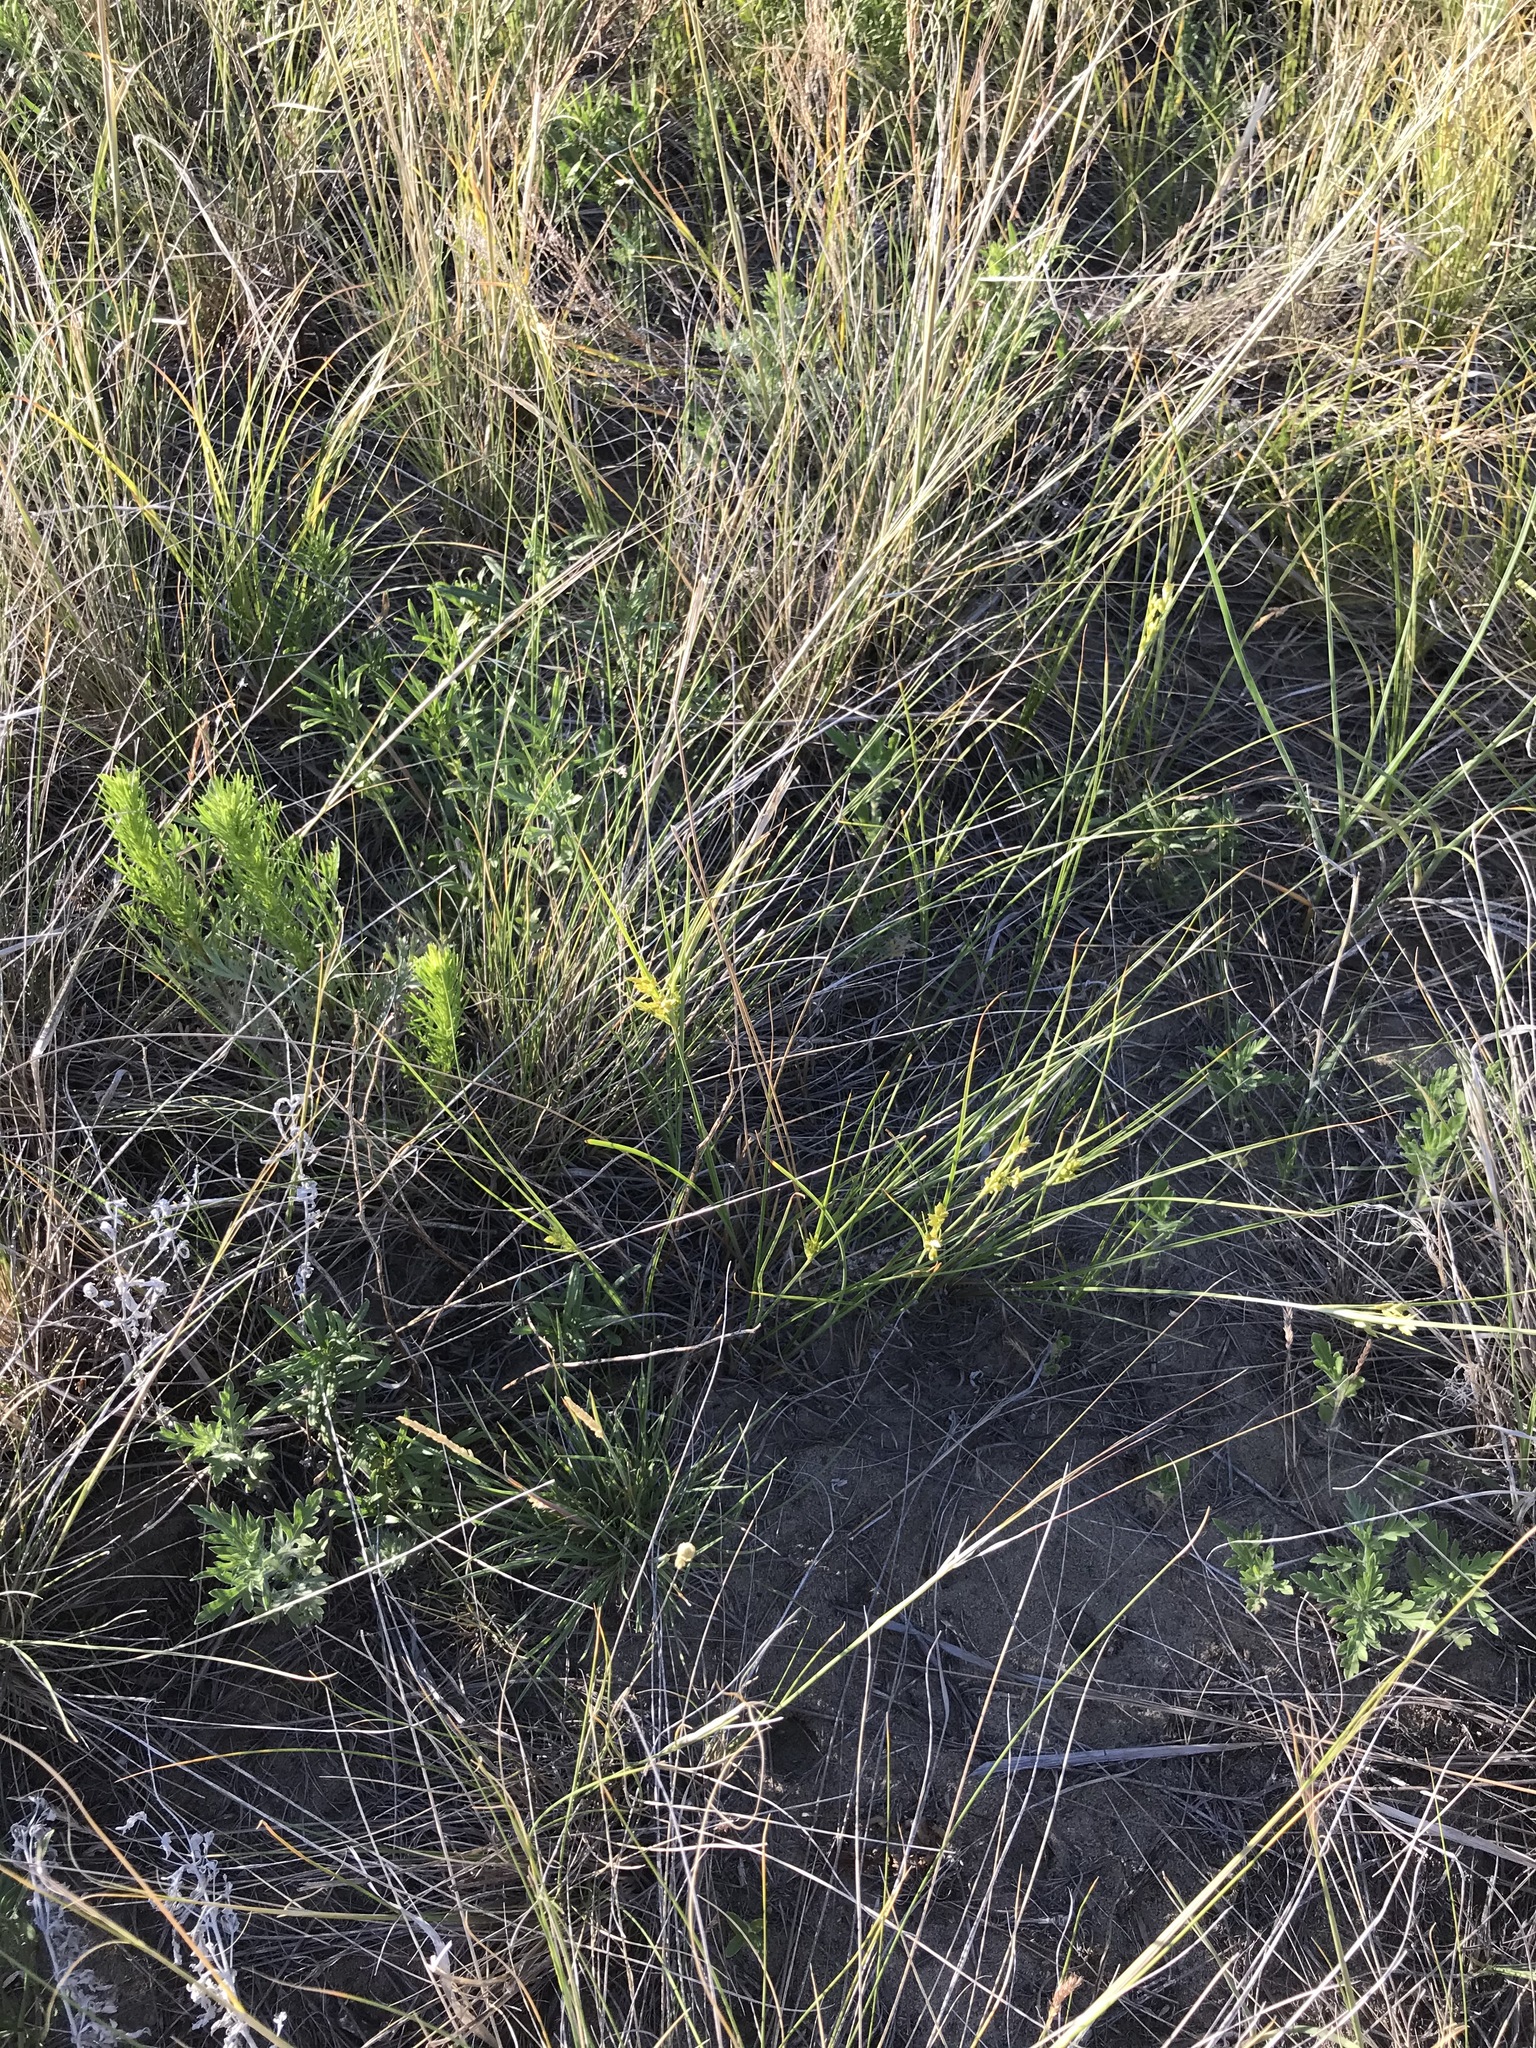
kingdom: Plantae
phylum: Tracheophyta
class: Liliopsida
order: Poales
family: Cyperaceae
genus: Cyperus
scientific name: Cyperus schweinitzii
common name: Schweinitz's cyperus
